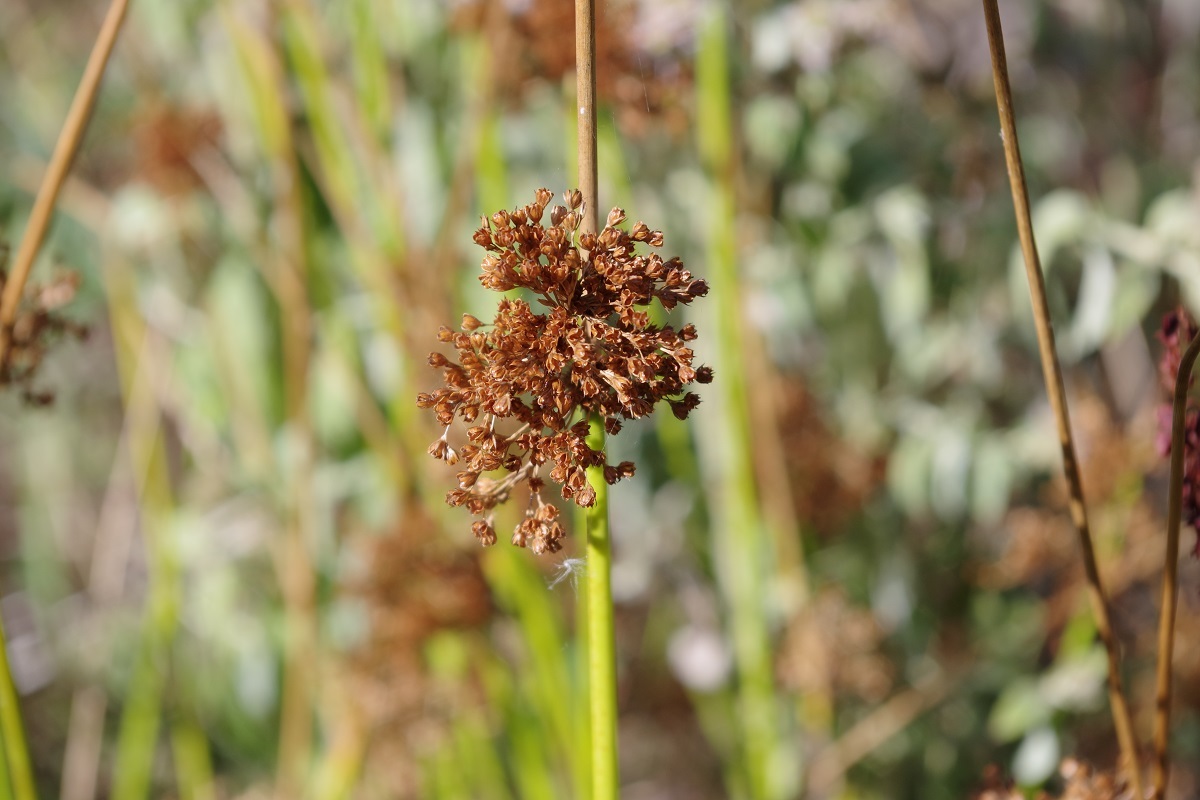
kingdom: Plantae
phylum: Tracheophyta
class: Liliopsida
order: Poales
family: Juncaceae
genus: Juncus
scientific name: Juncus effusus
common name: Soft rush
